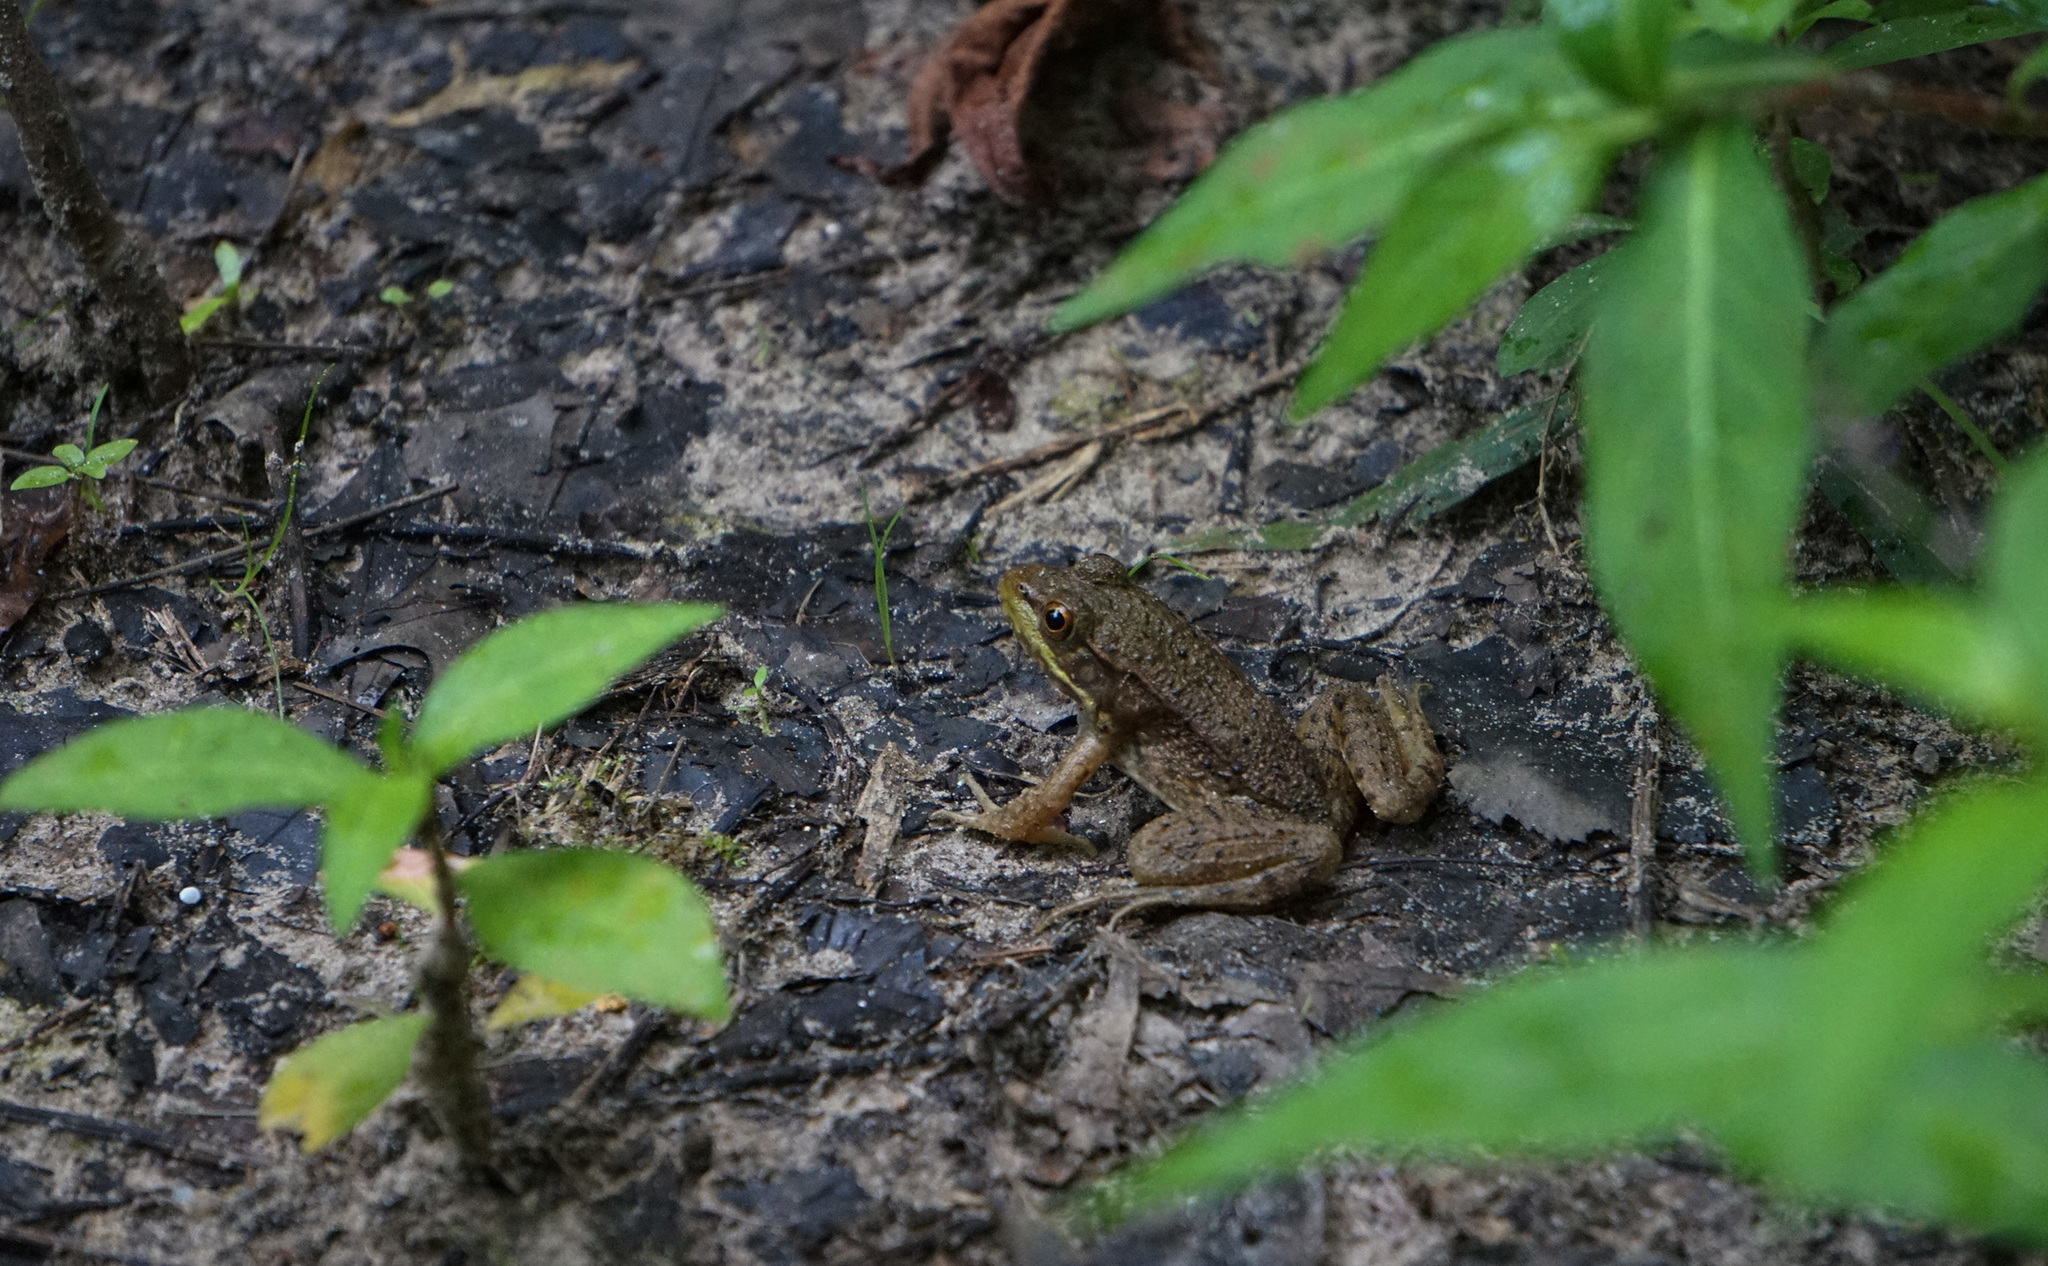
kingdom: Animalia
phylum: Chordata
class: Amphibia
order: Anura
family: Ranidae
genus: Lithobates
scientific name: Lithobates clamitans
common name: Green frog
